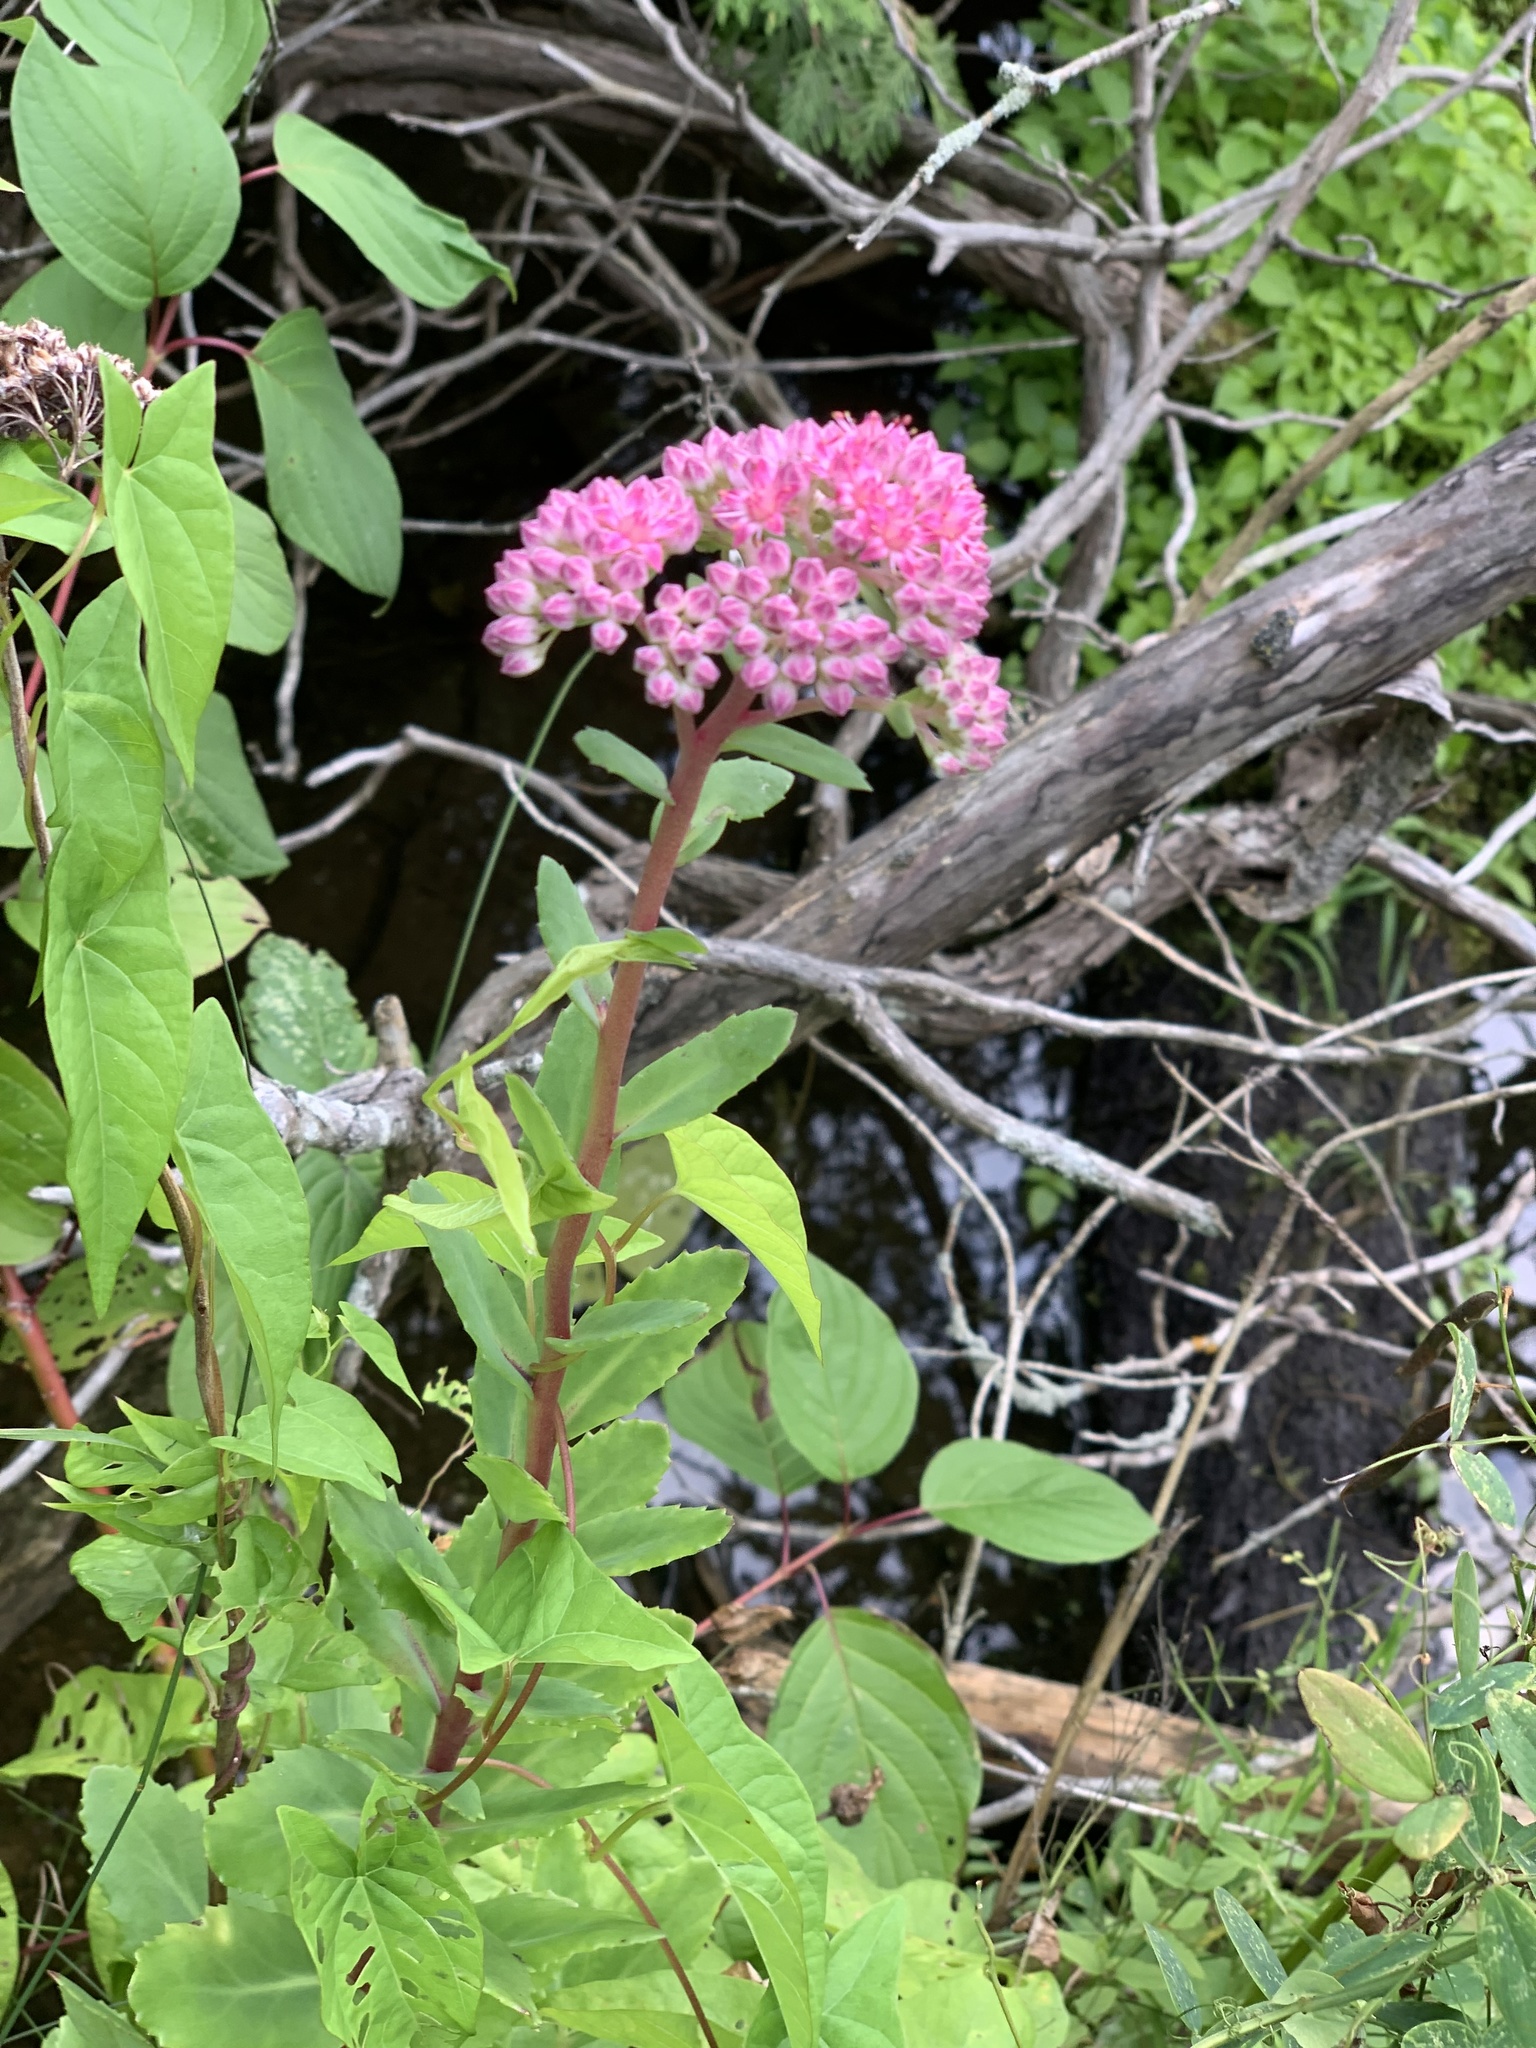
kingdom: Plantae
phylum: Tracheophyta
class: Magnoliopsida
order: Saxifragales
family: Crassulaceae
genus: Hylotelephium
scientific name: Hylotelephium telephium
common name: Live-forever
